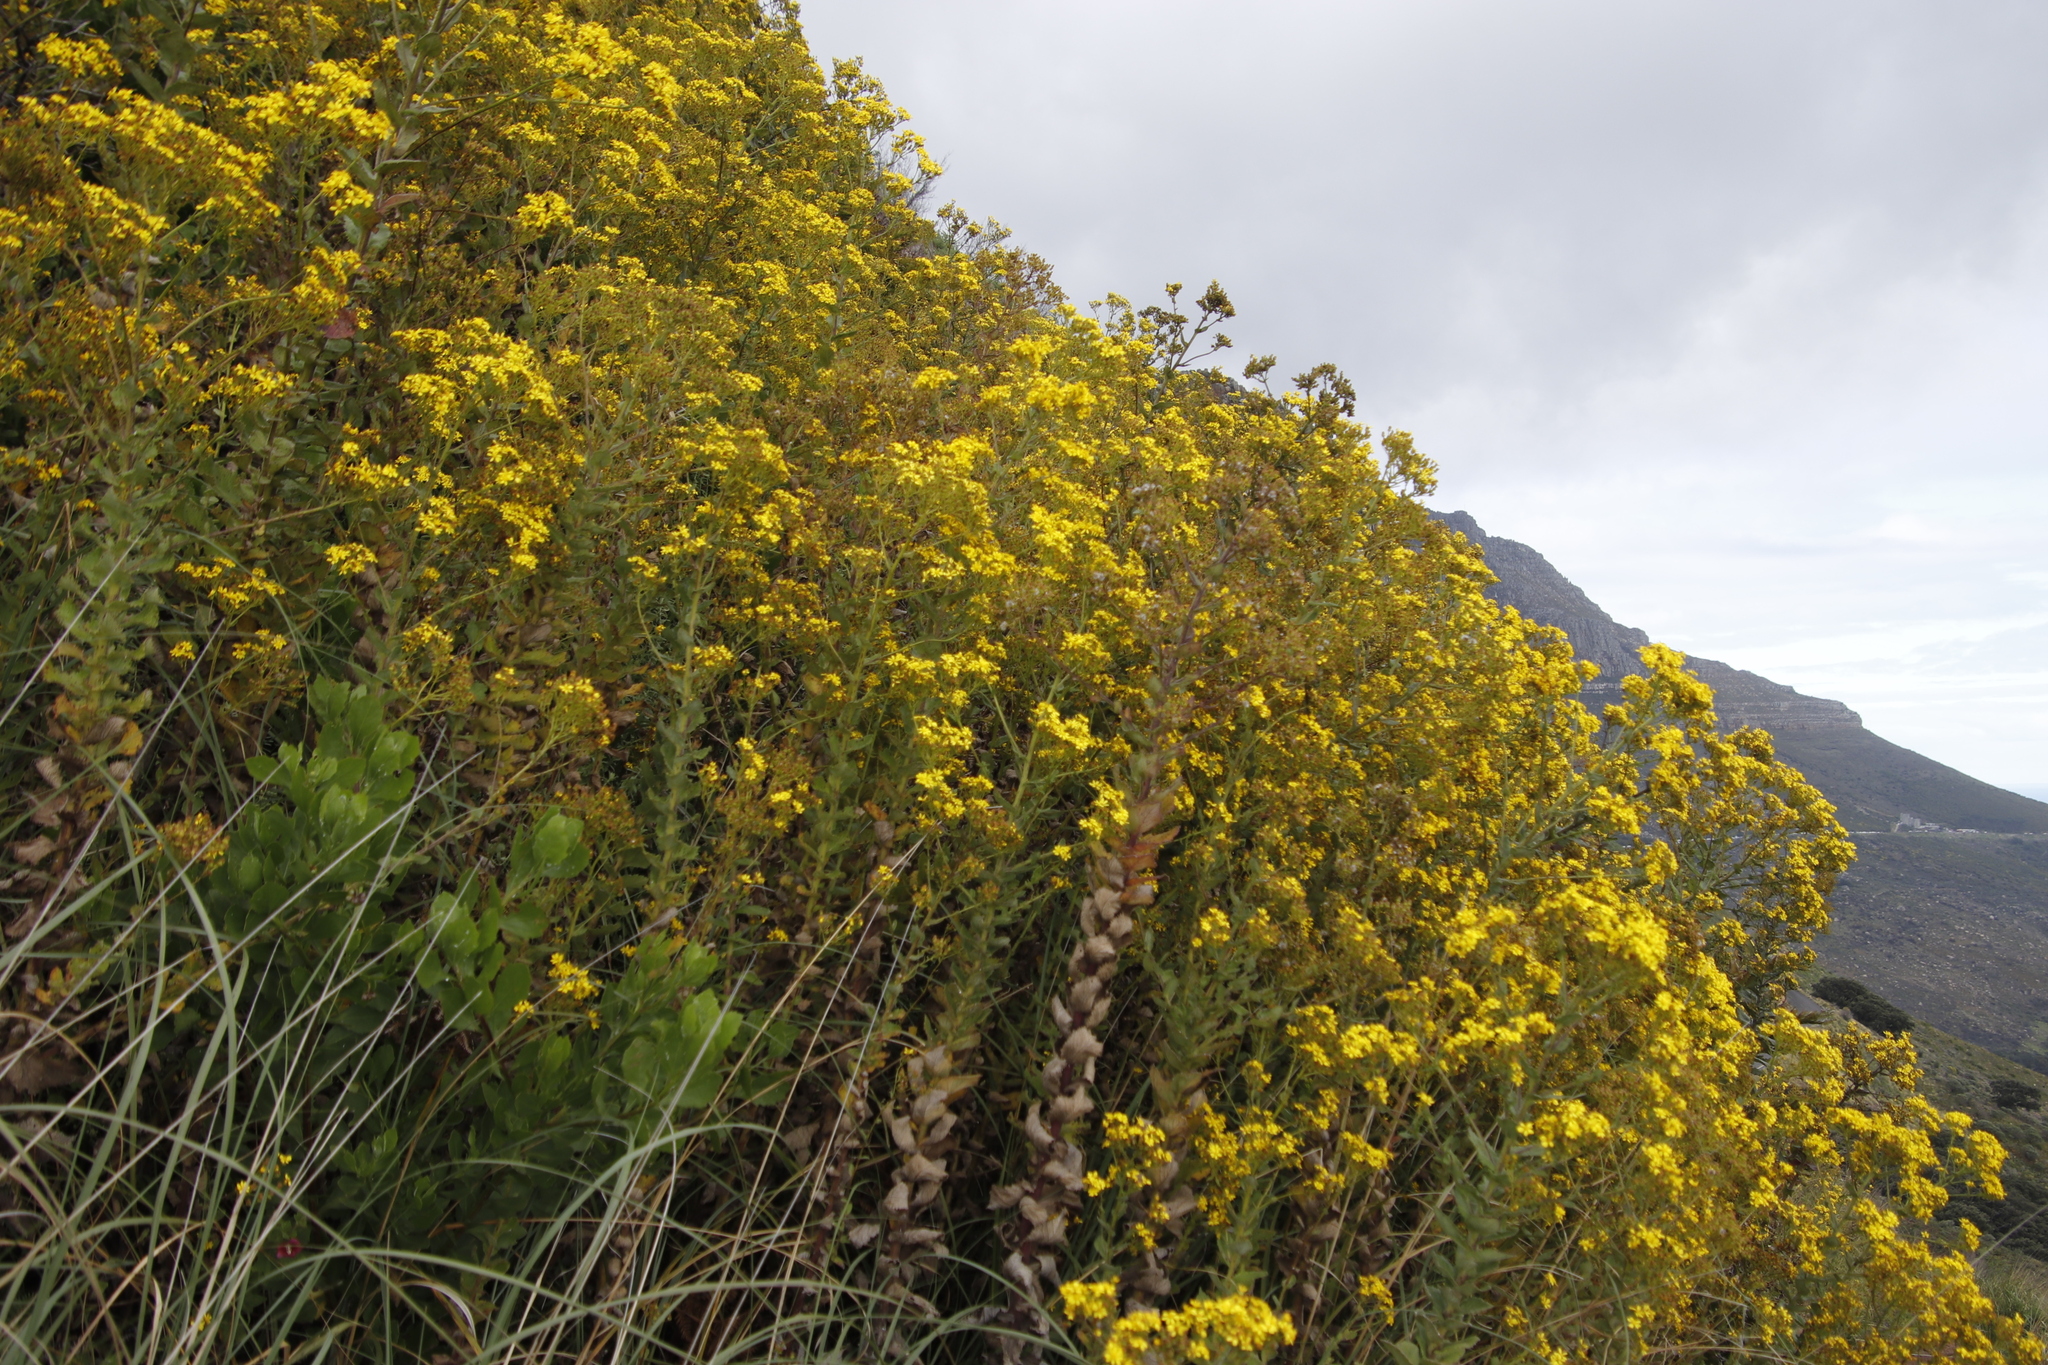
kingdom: Plantae
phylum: Tracheophyta
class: Magnoliopsida
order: Asterales
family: Asteraceae
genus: Senecio
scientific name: Senecio rigidus
